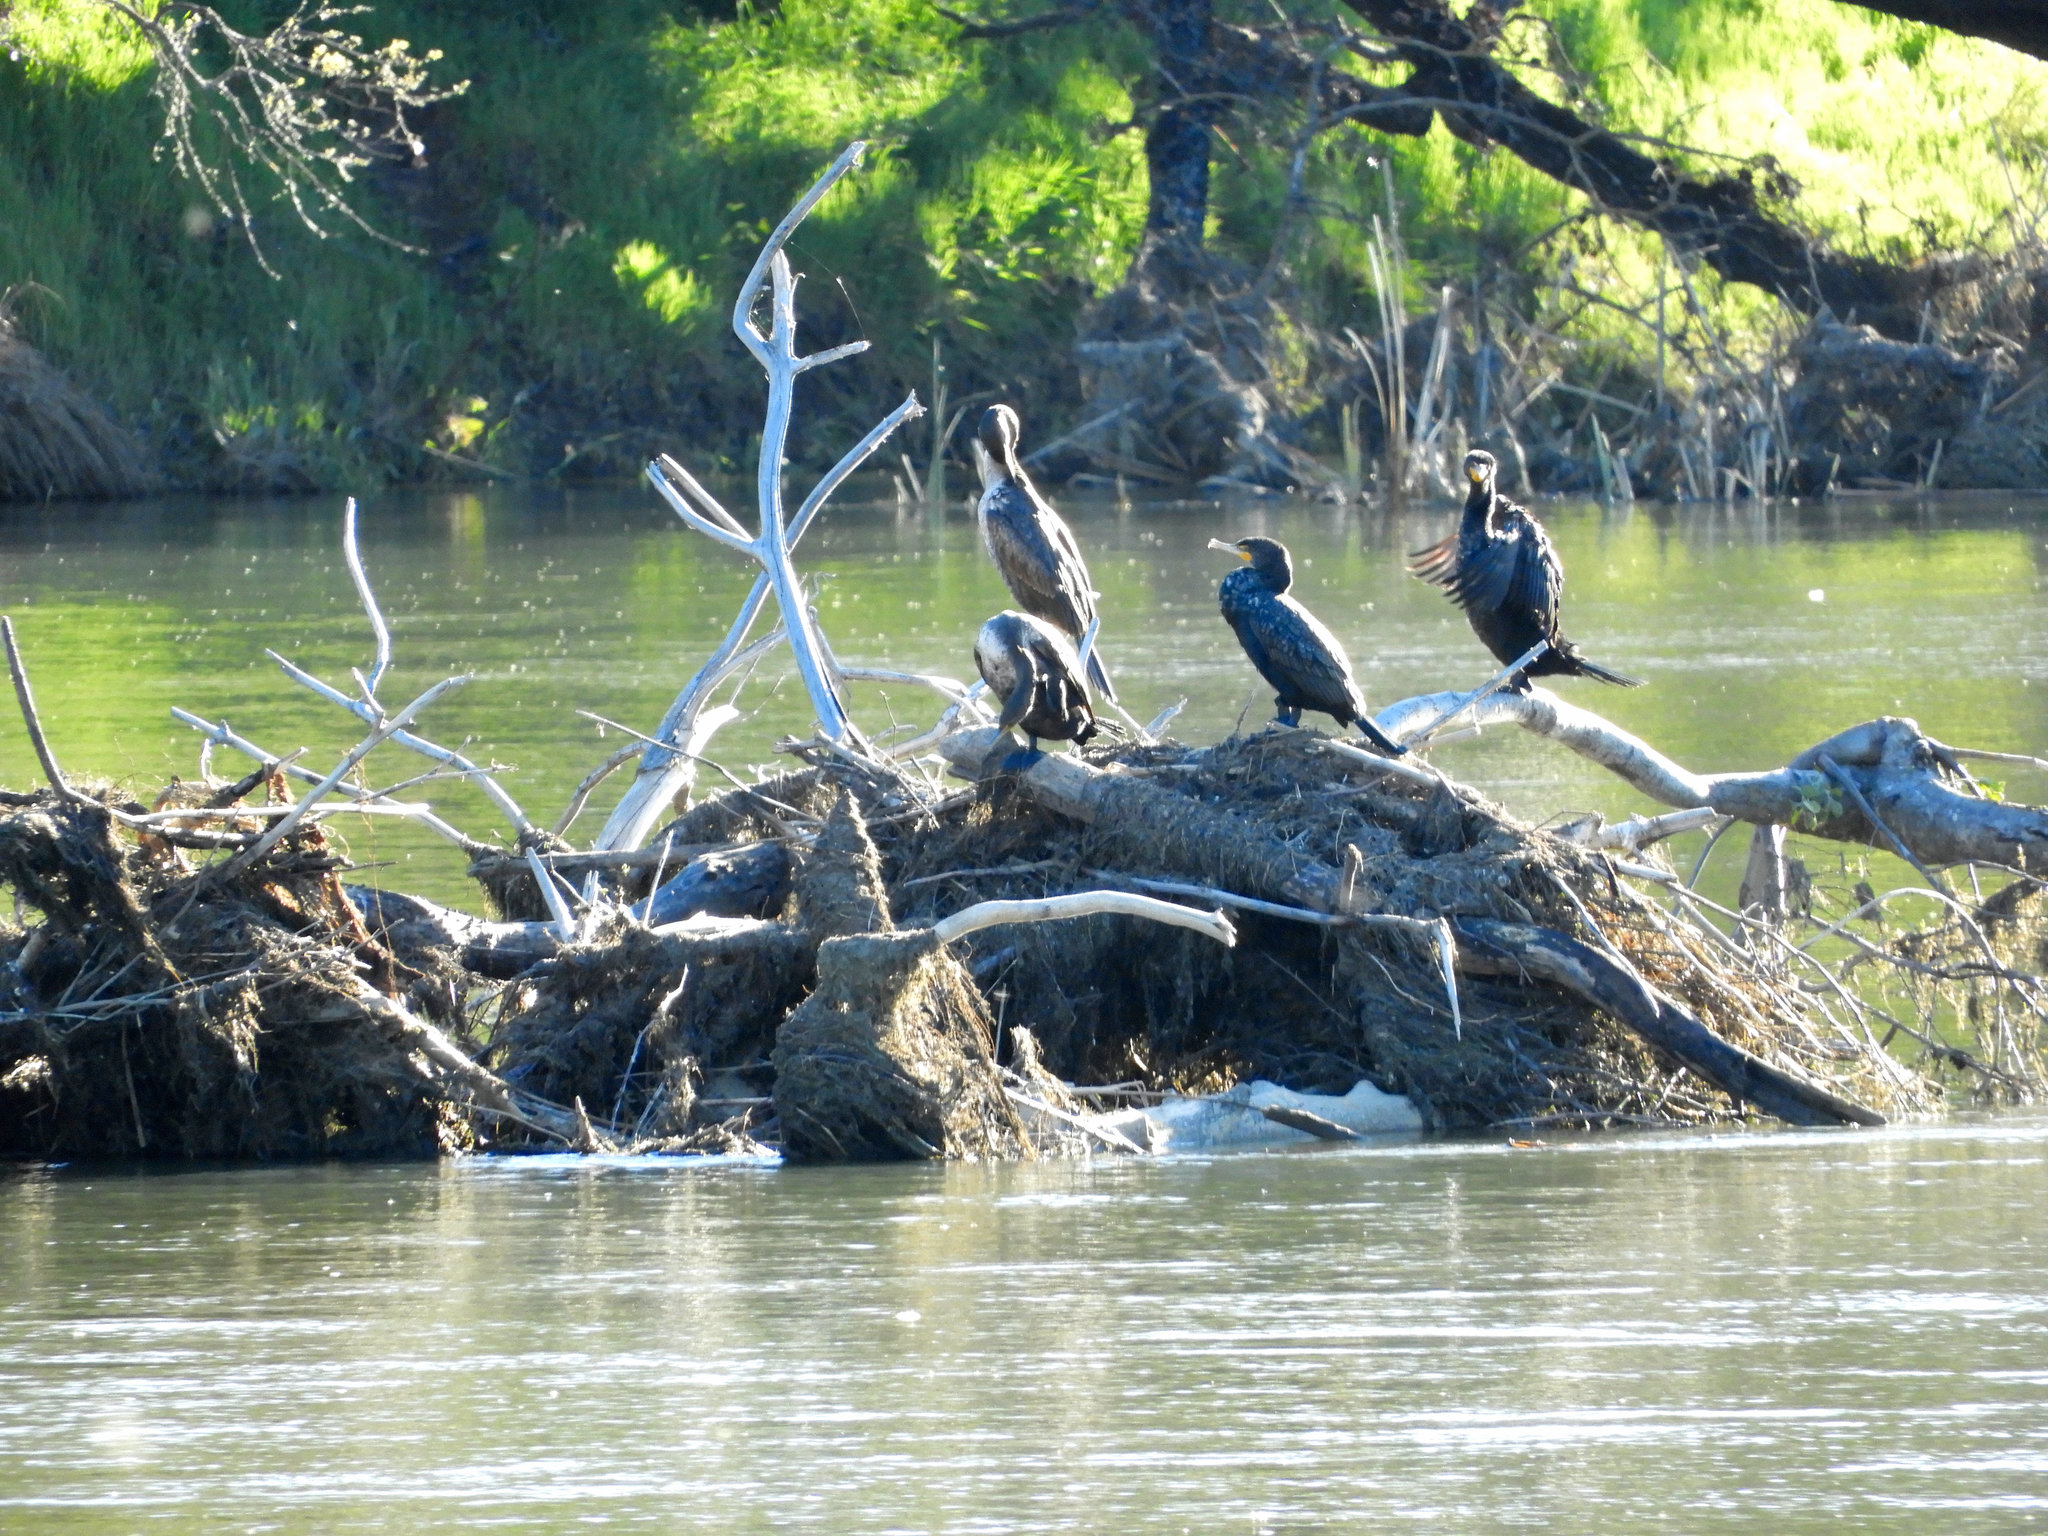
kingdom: Animalia
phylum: Chordata
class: Aves
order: Suliformes
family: Phalacrocoracidae
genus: Phalacrocorax
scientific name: Phalacrocorax auritus
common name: Double-crested cormorant
